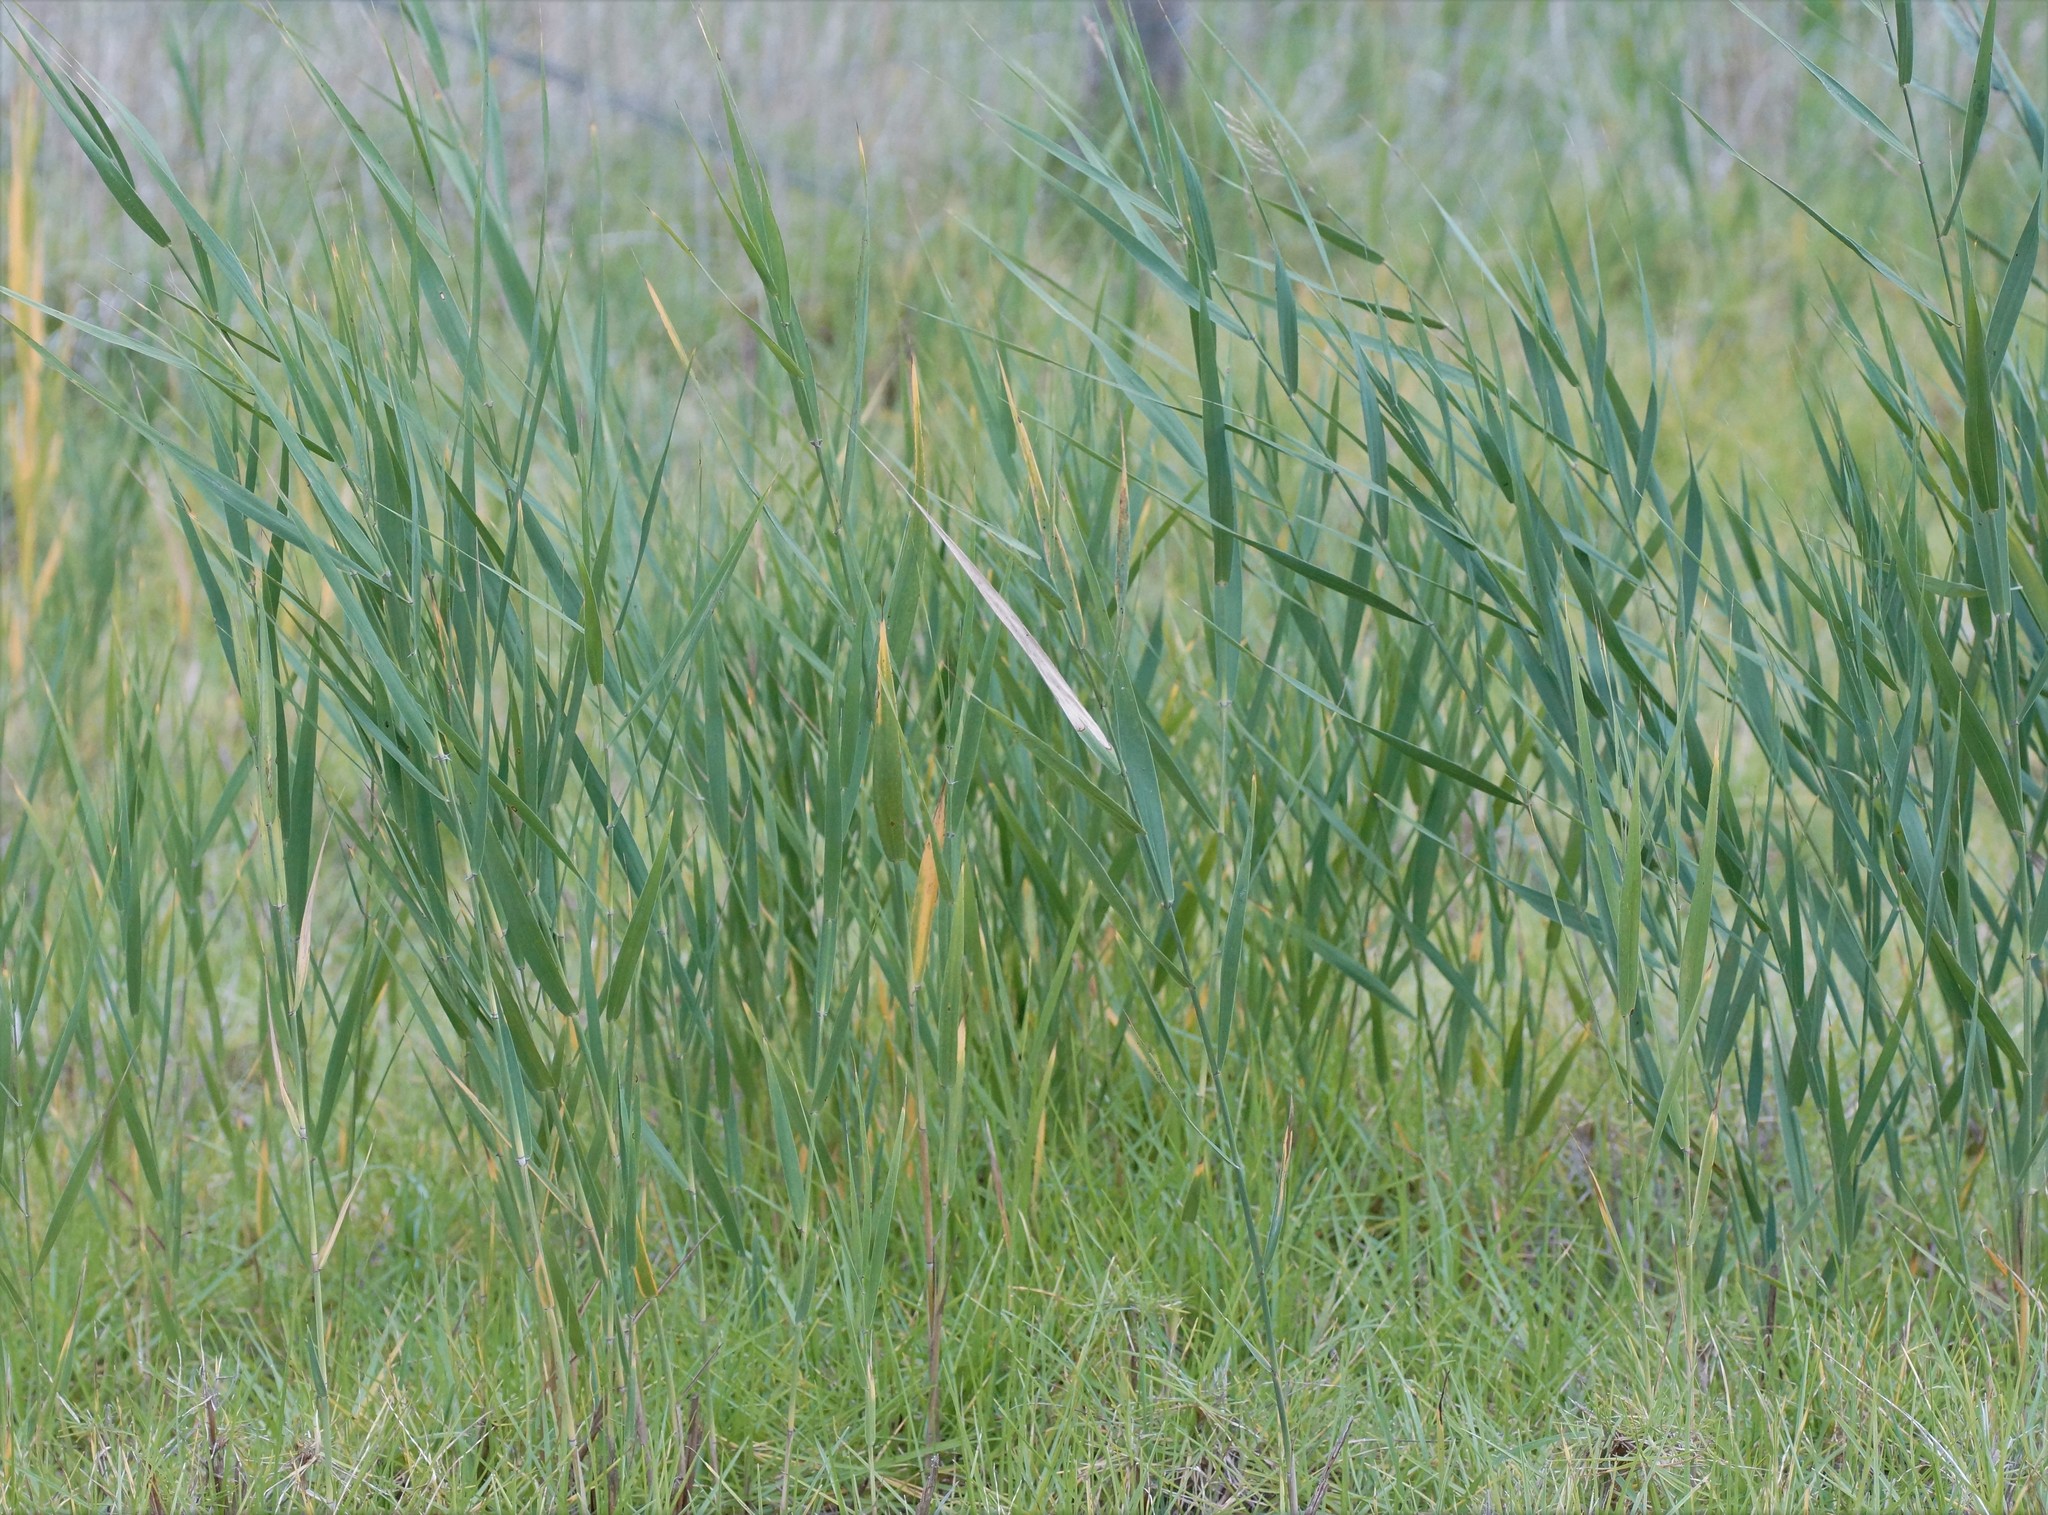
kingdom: Plantae
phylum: Tracheophyta
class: Liliopsida
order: Poales
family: Poaceae
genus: Phragmites
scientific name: Phragmites australis
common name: Common reed
